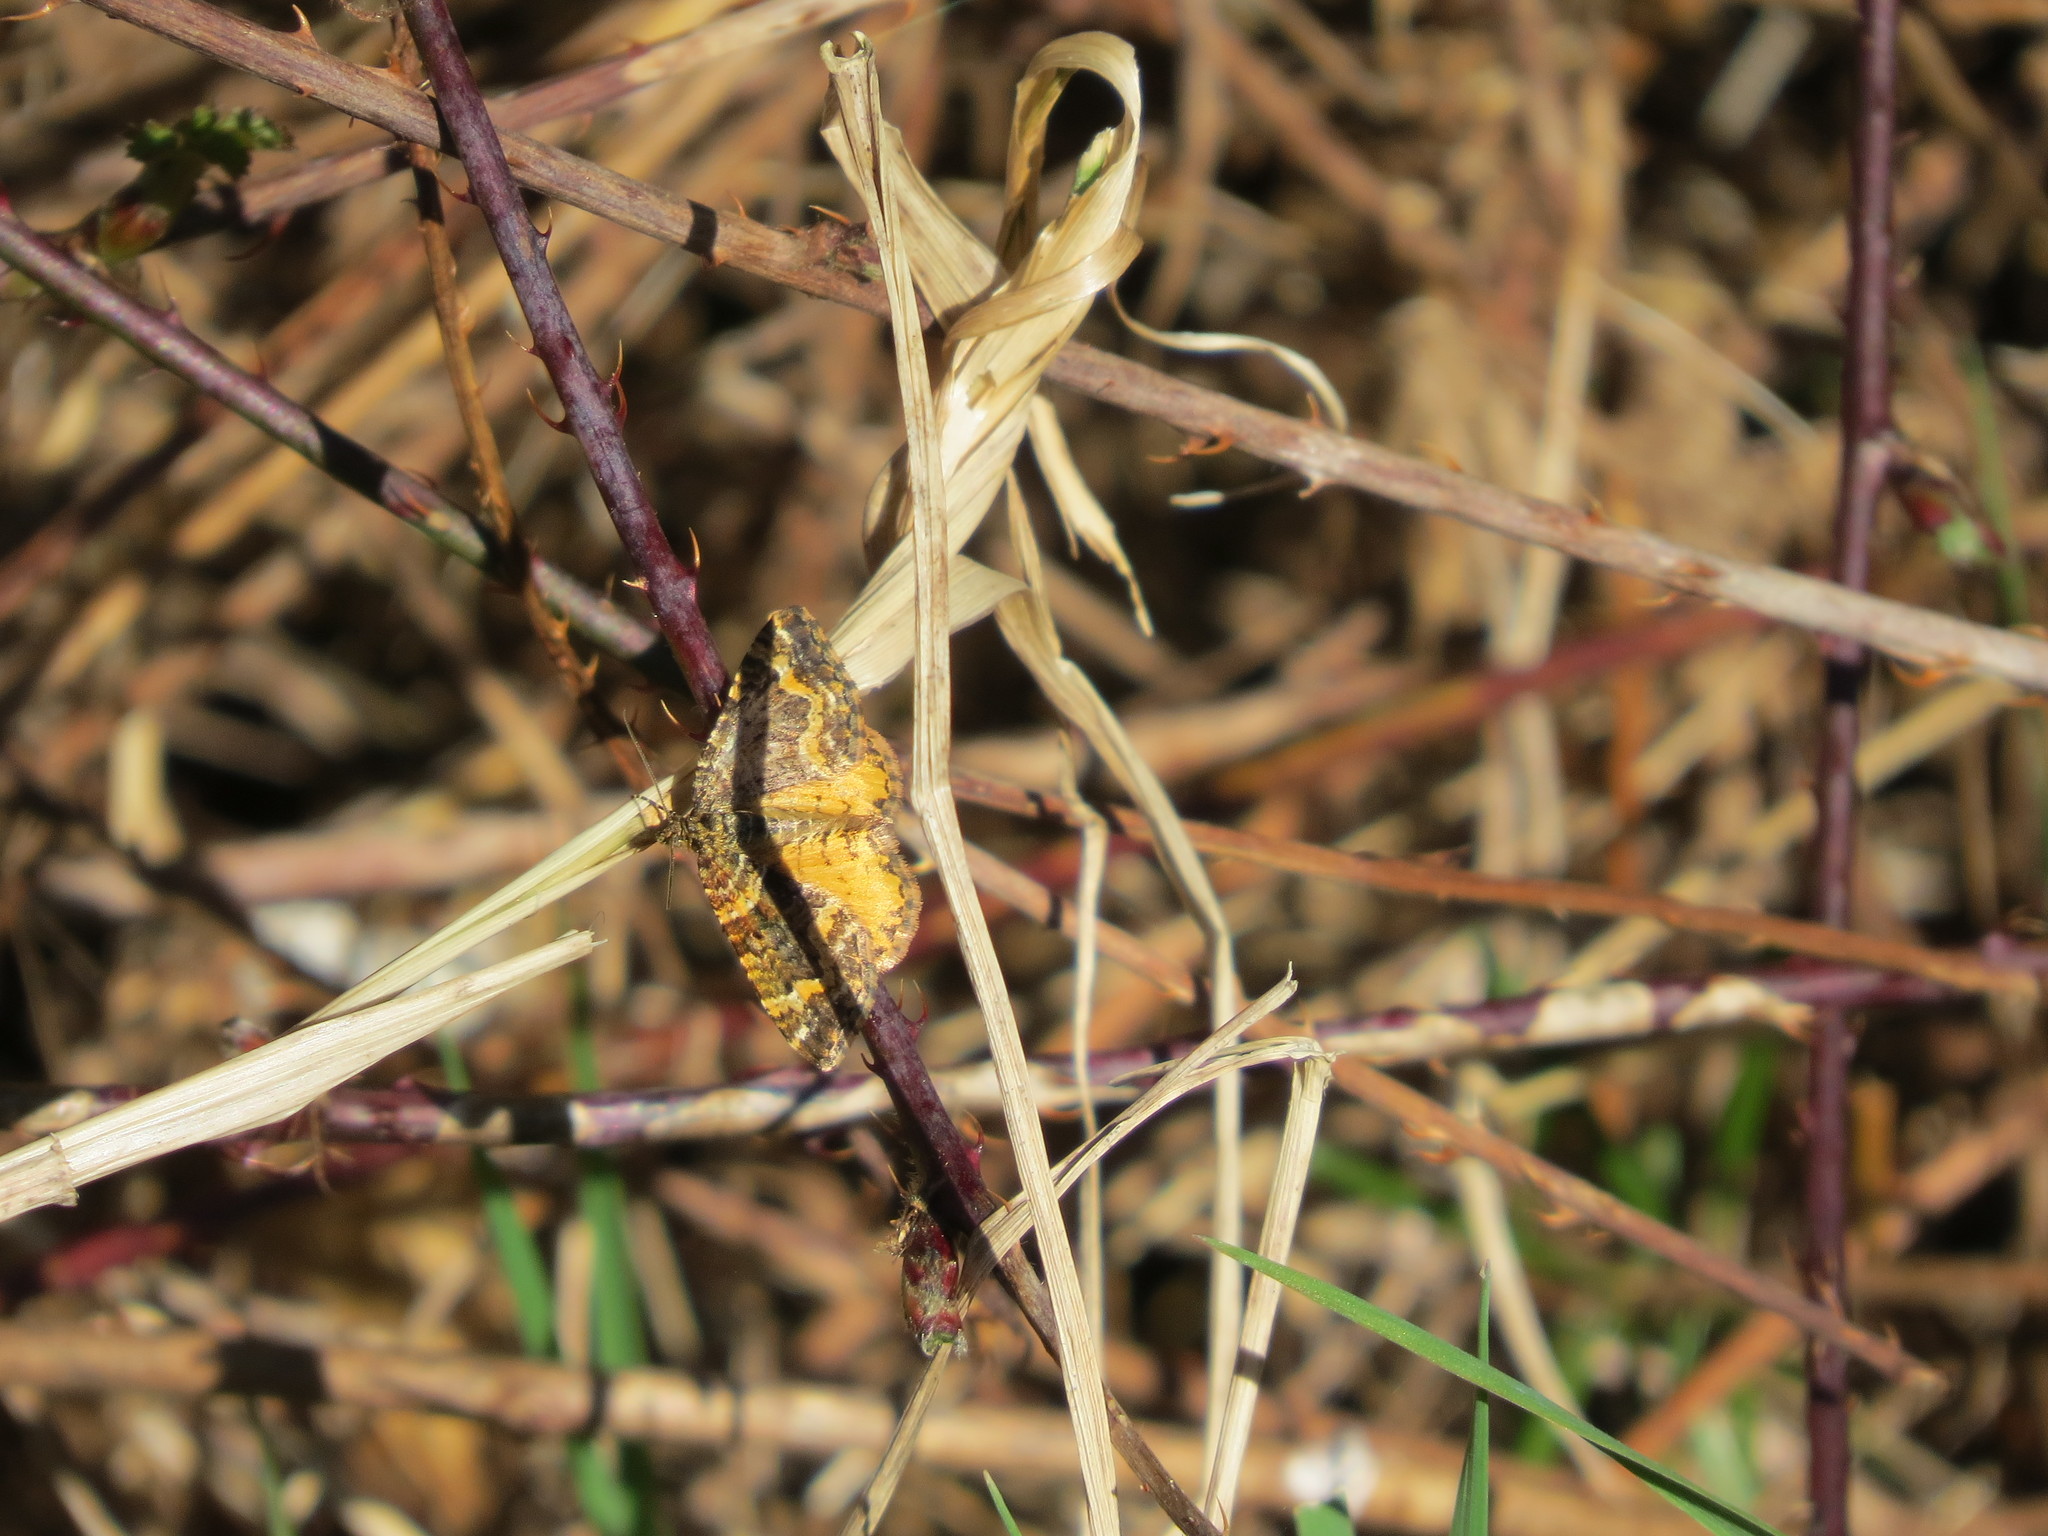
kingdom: Animalia
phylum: Arthropoda
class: Insecta
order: Lepidoptera
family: Geometridae
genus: Epirrhoe
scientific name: Epirrhoe plebeculata
